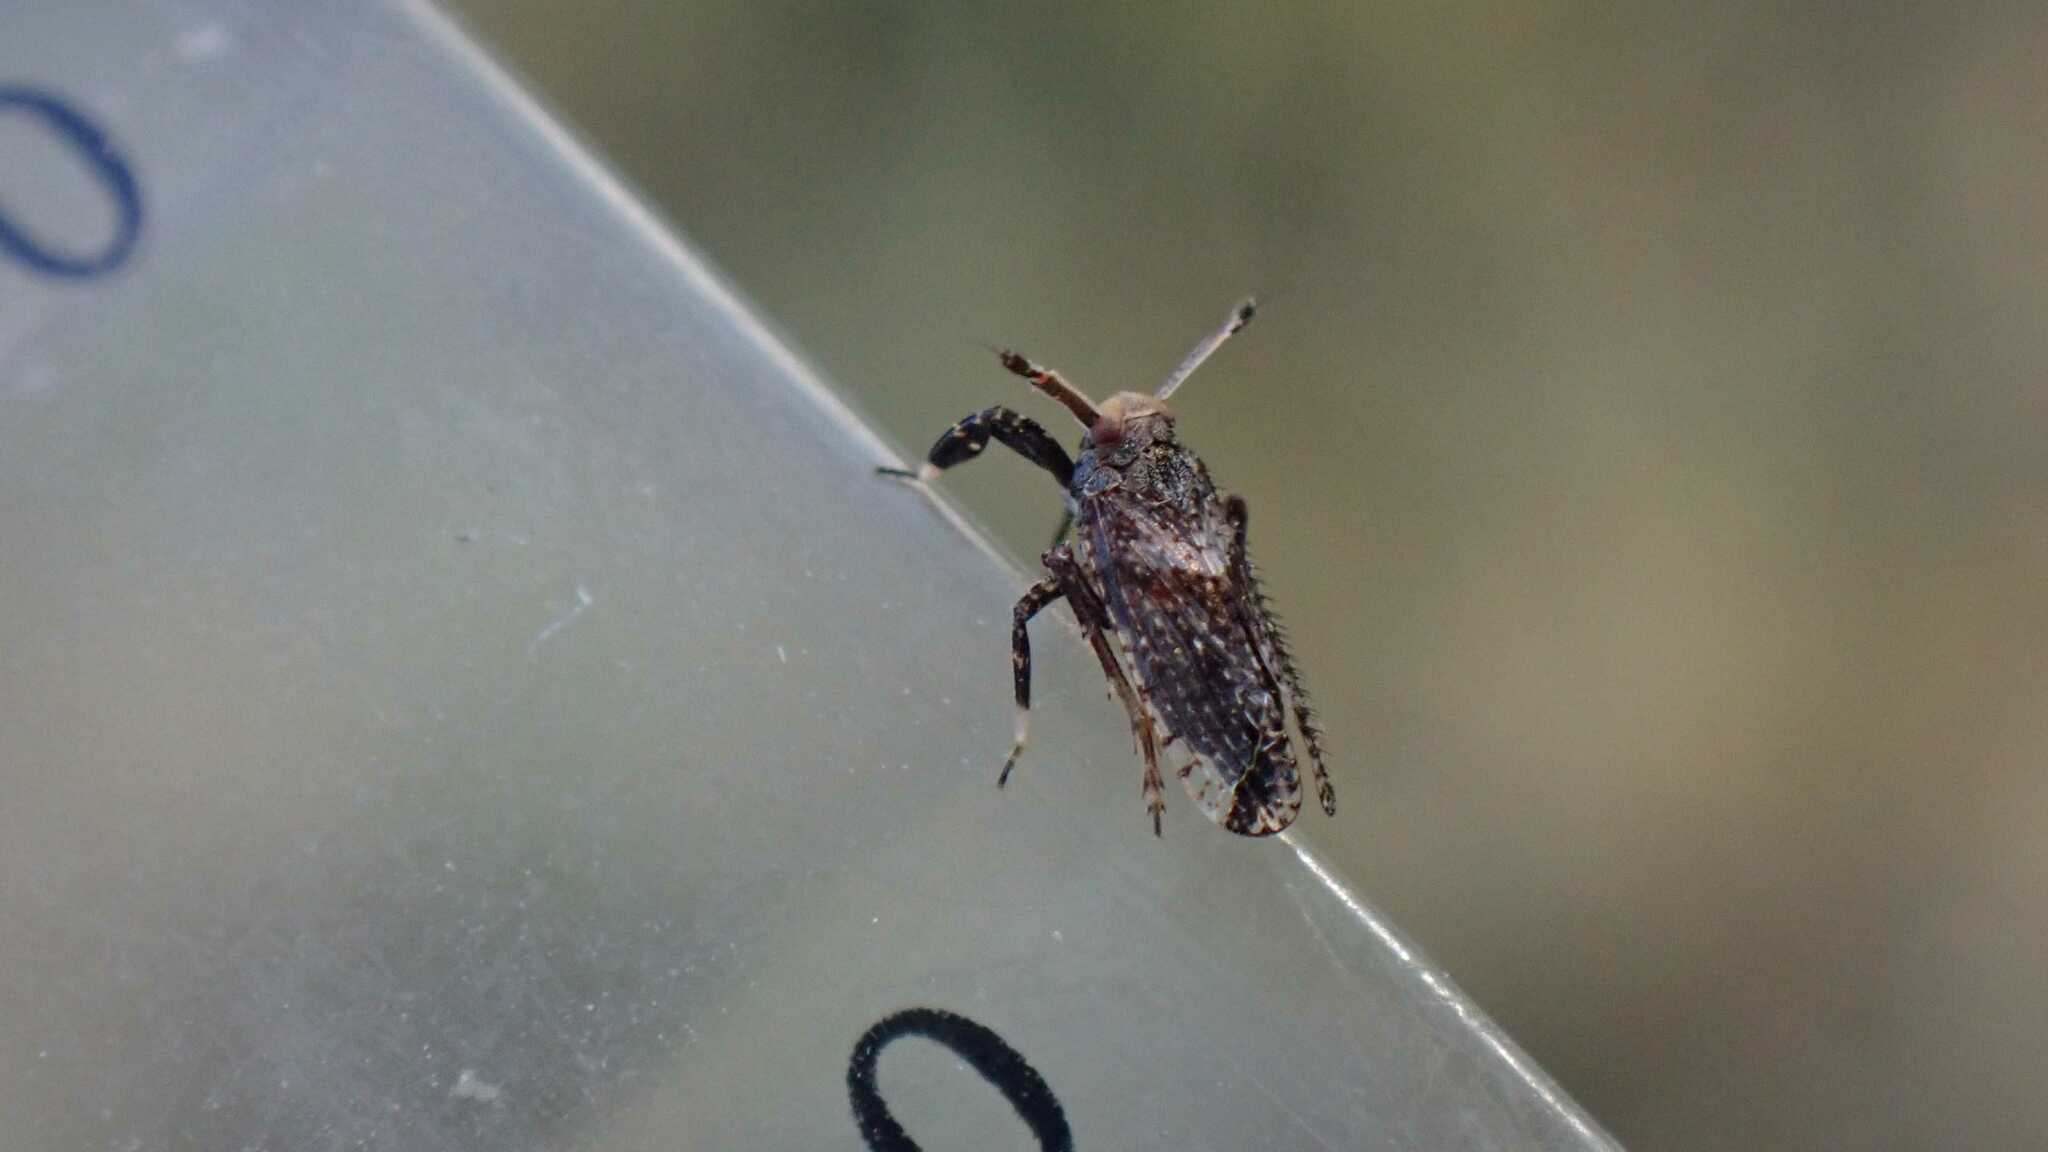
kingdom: Animalia
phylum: Arthropoda
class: Insecta
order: Hemiptera
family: Delphacidae
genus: Asiraca
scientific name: Asiraca clavicornis
